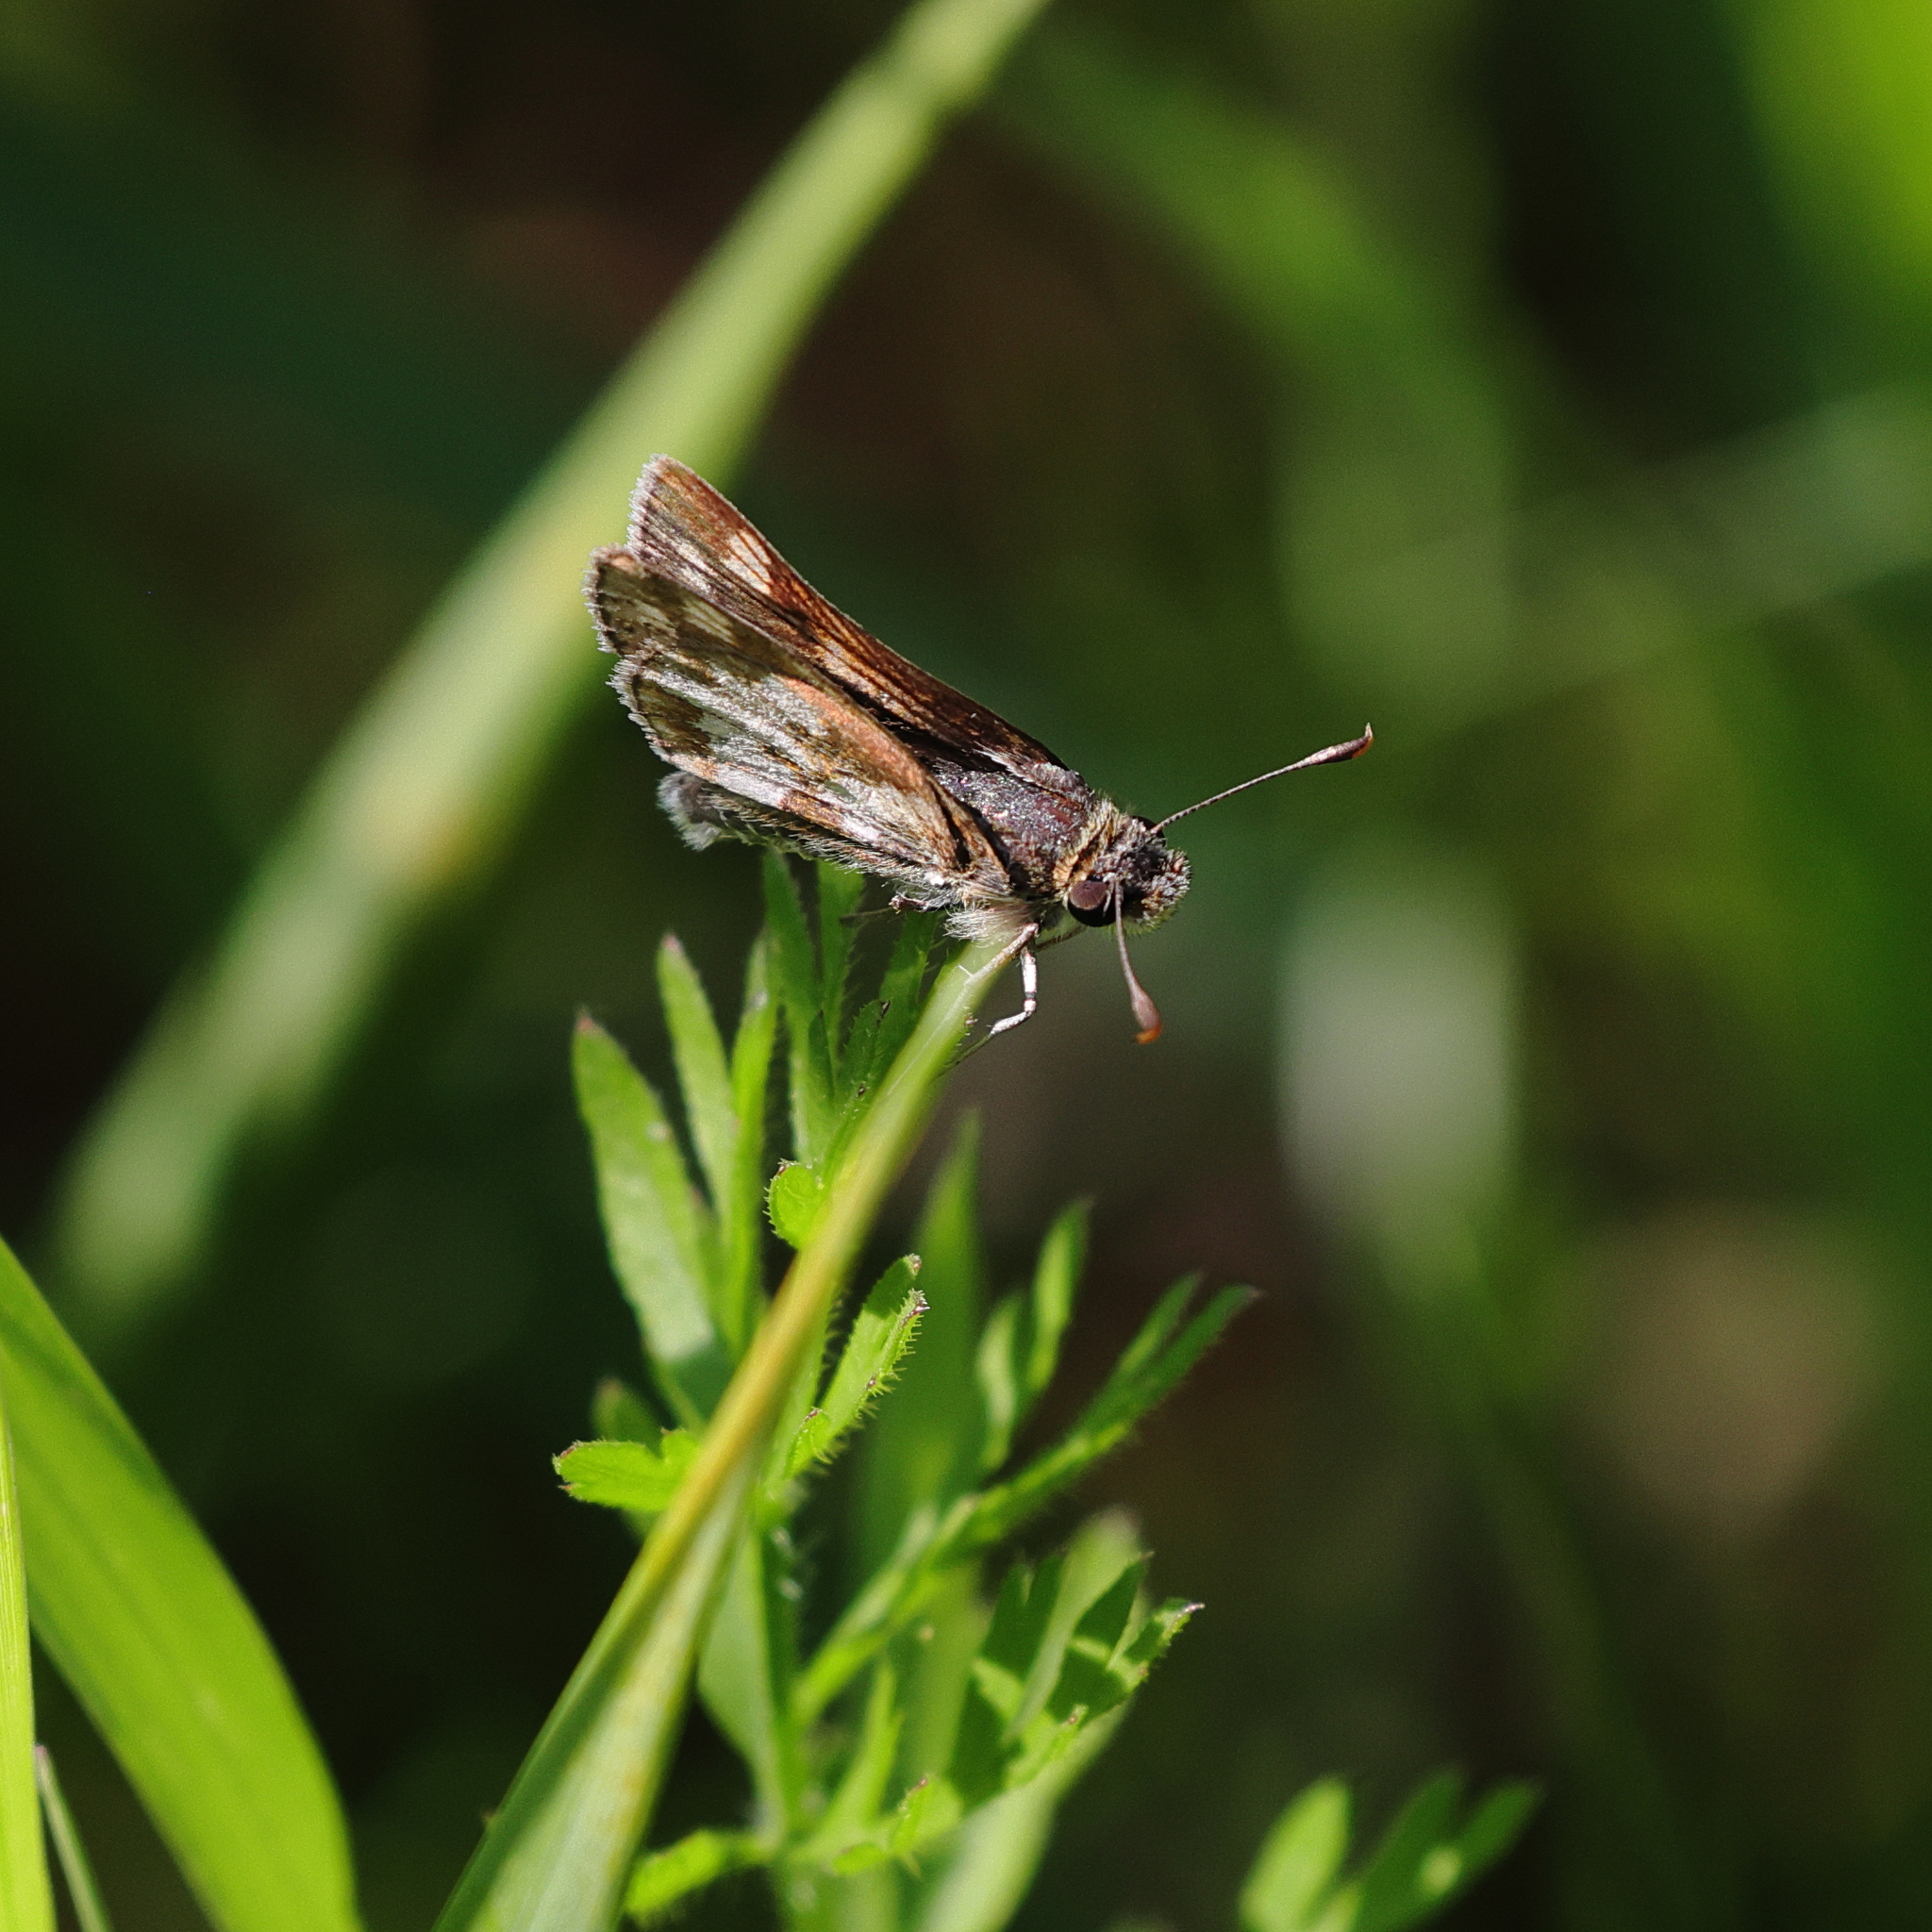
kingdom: Animalia
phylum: Arthropoda
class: Insecta
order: Lepidoptera
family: Hesperiidae
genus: Polites
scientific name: Polites coras
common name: Peck's skipper
